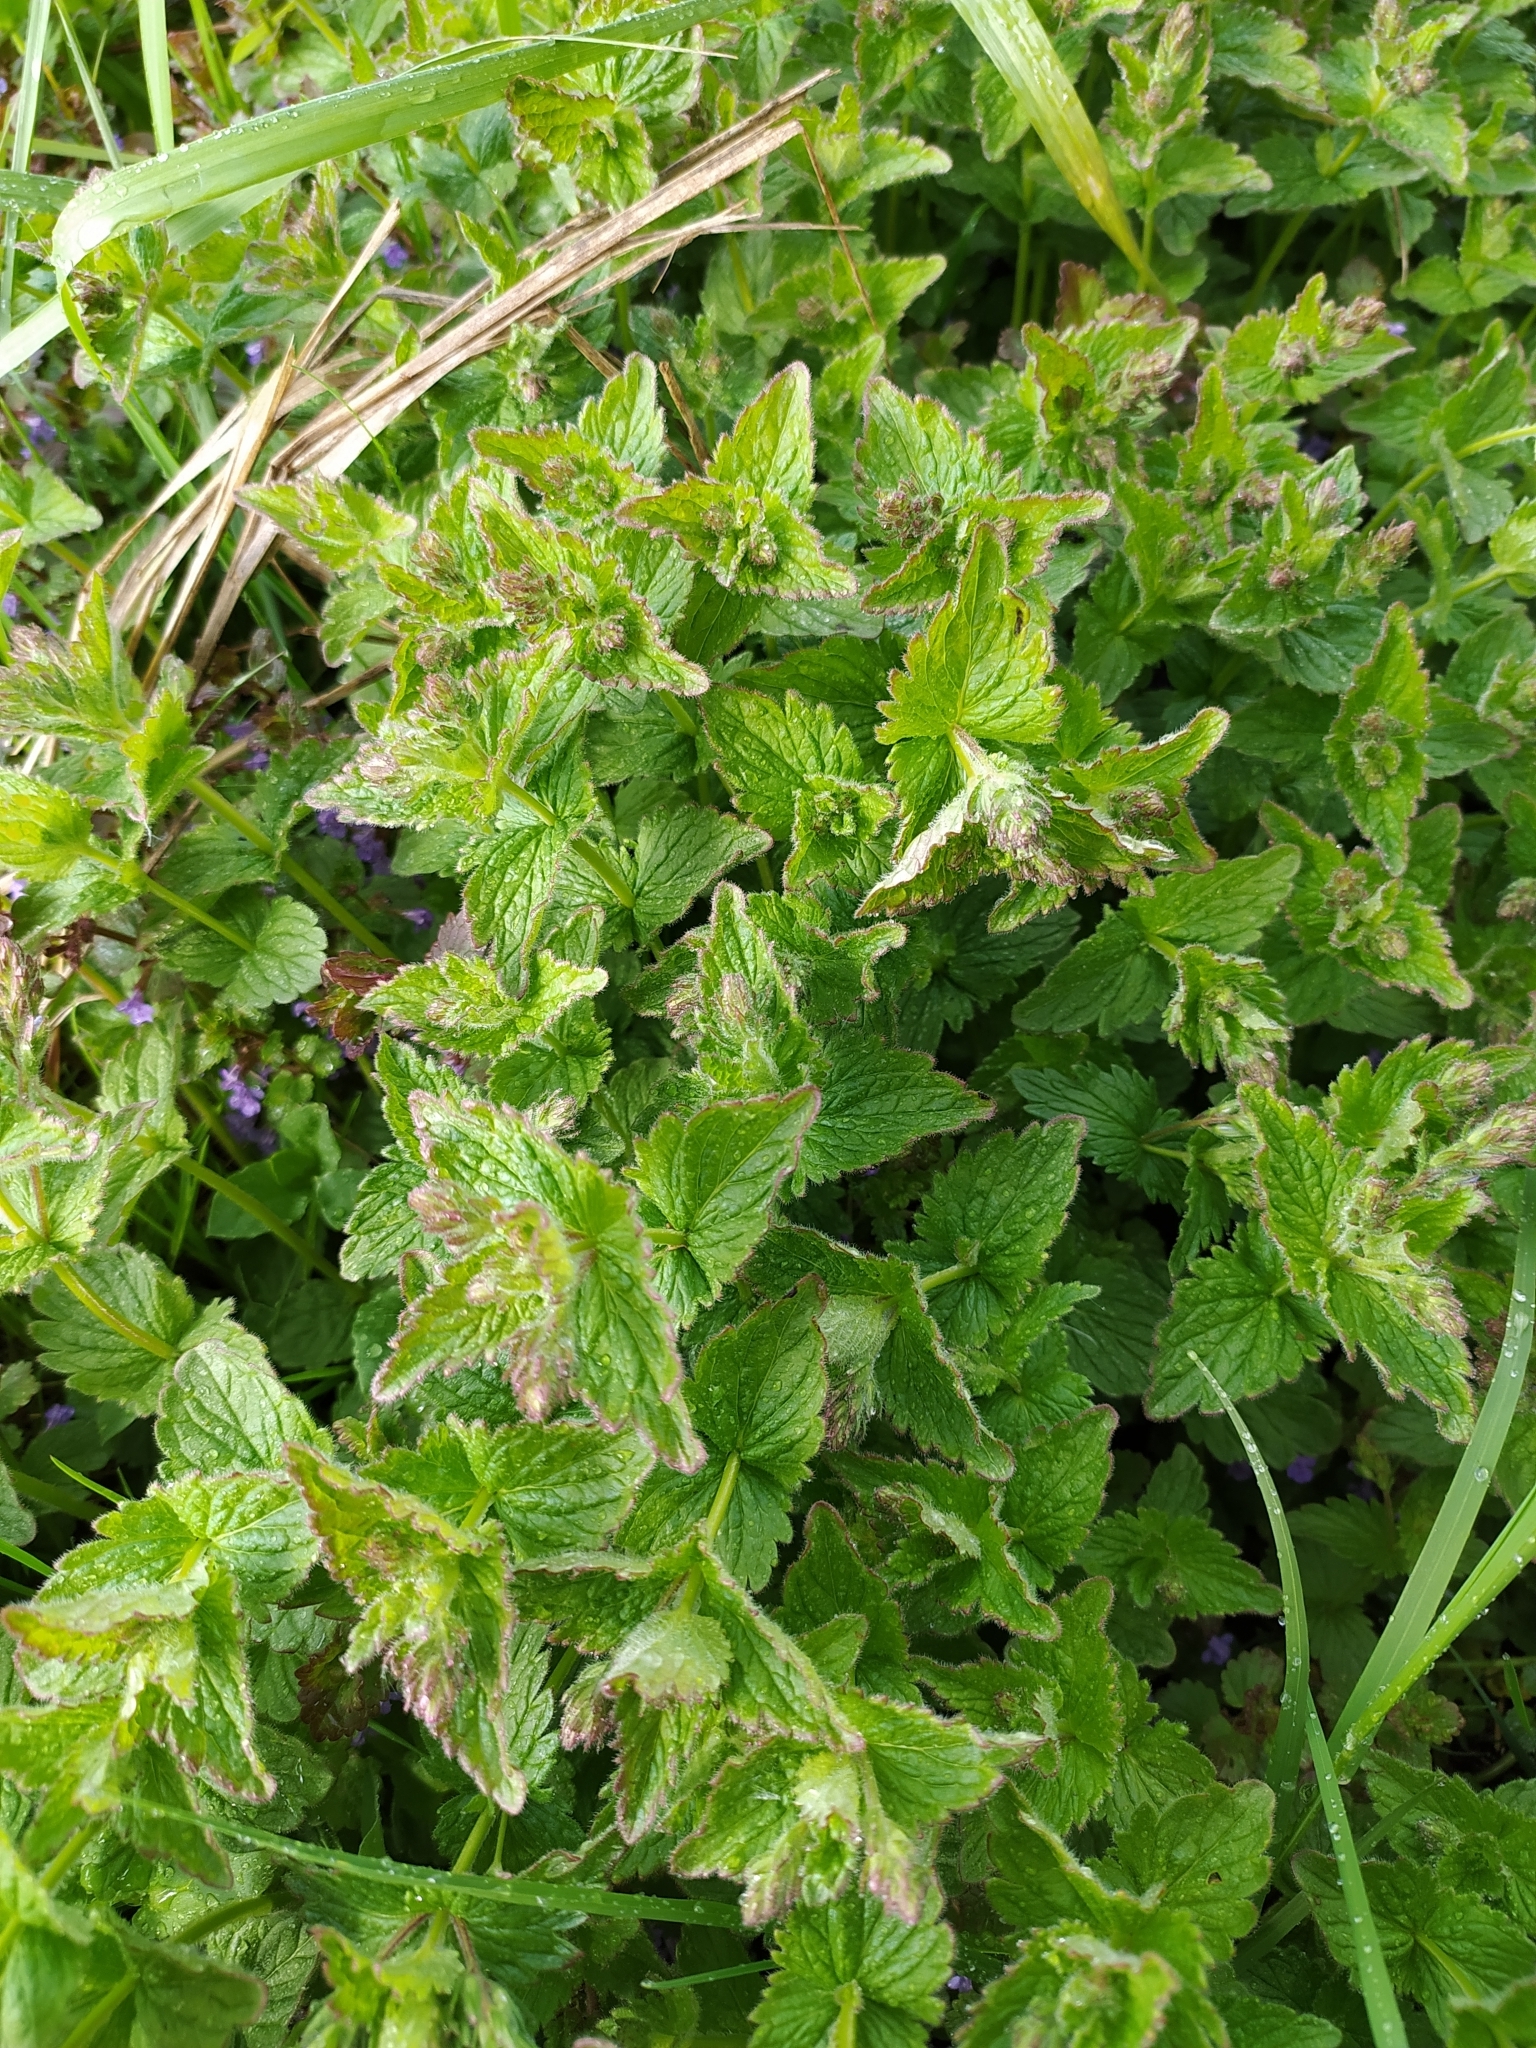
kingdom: Plantae
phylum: Tracheophyta
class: Magnoliopsida
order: Lamiales
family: Plantaginaceae
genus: Veronica
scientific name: Veronica chamaedrys
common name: Germander speedwell
